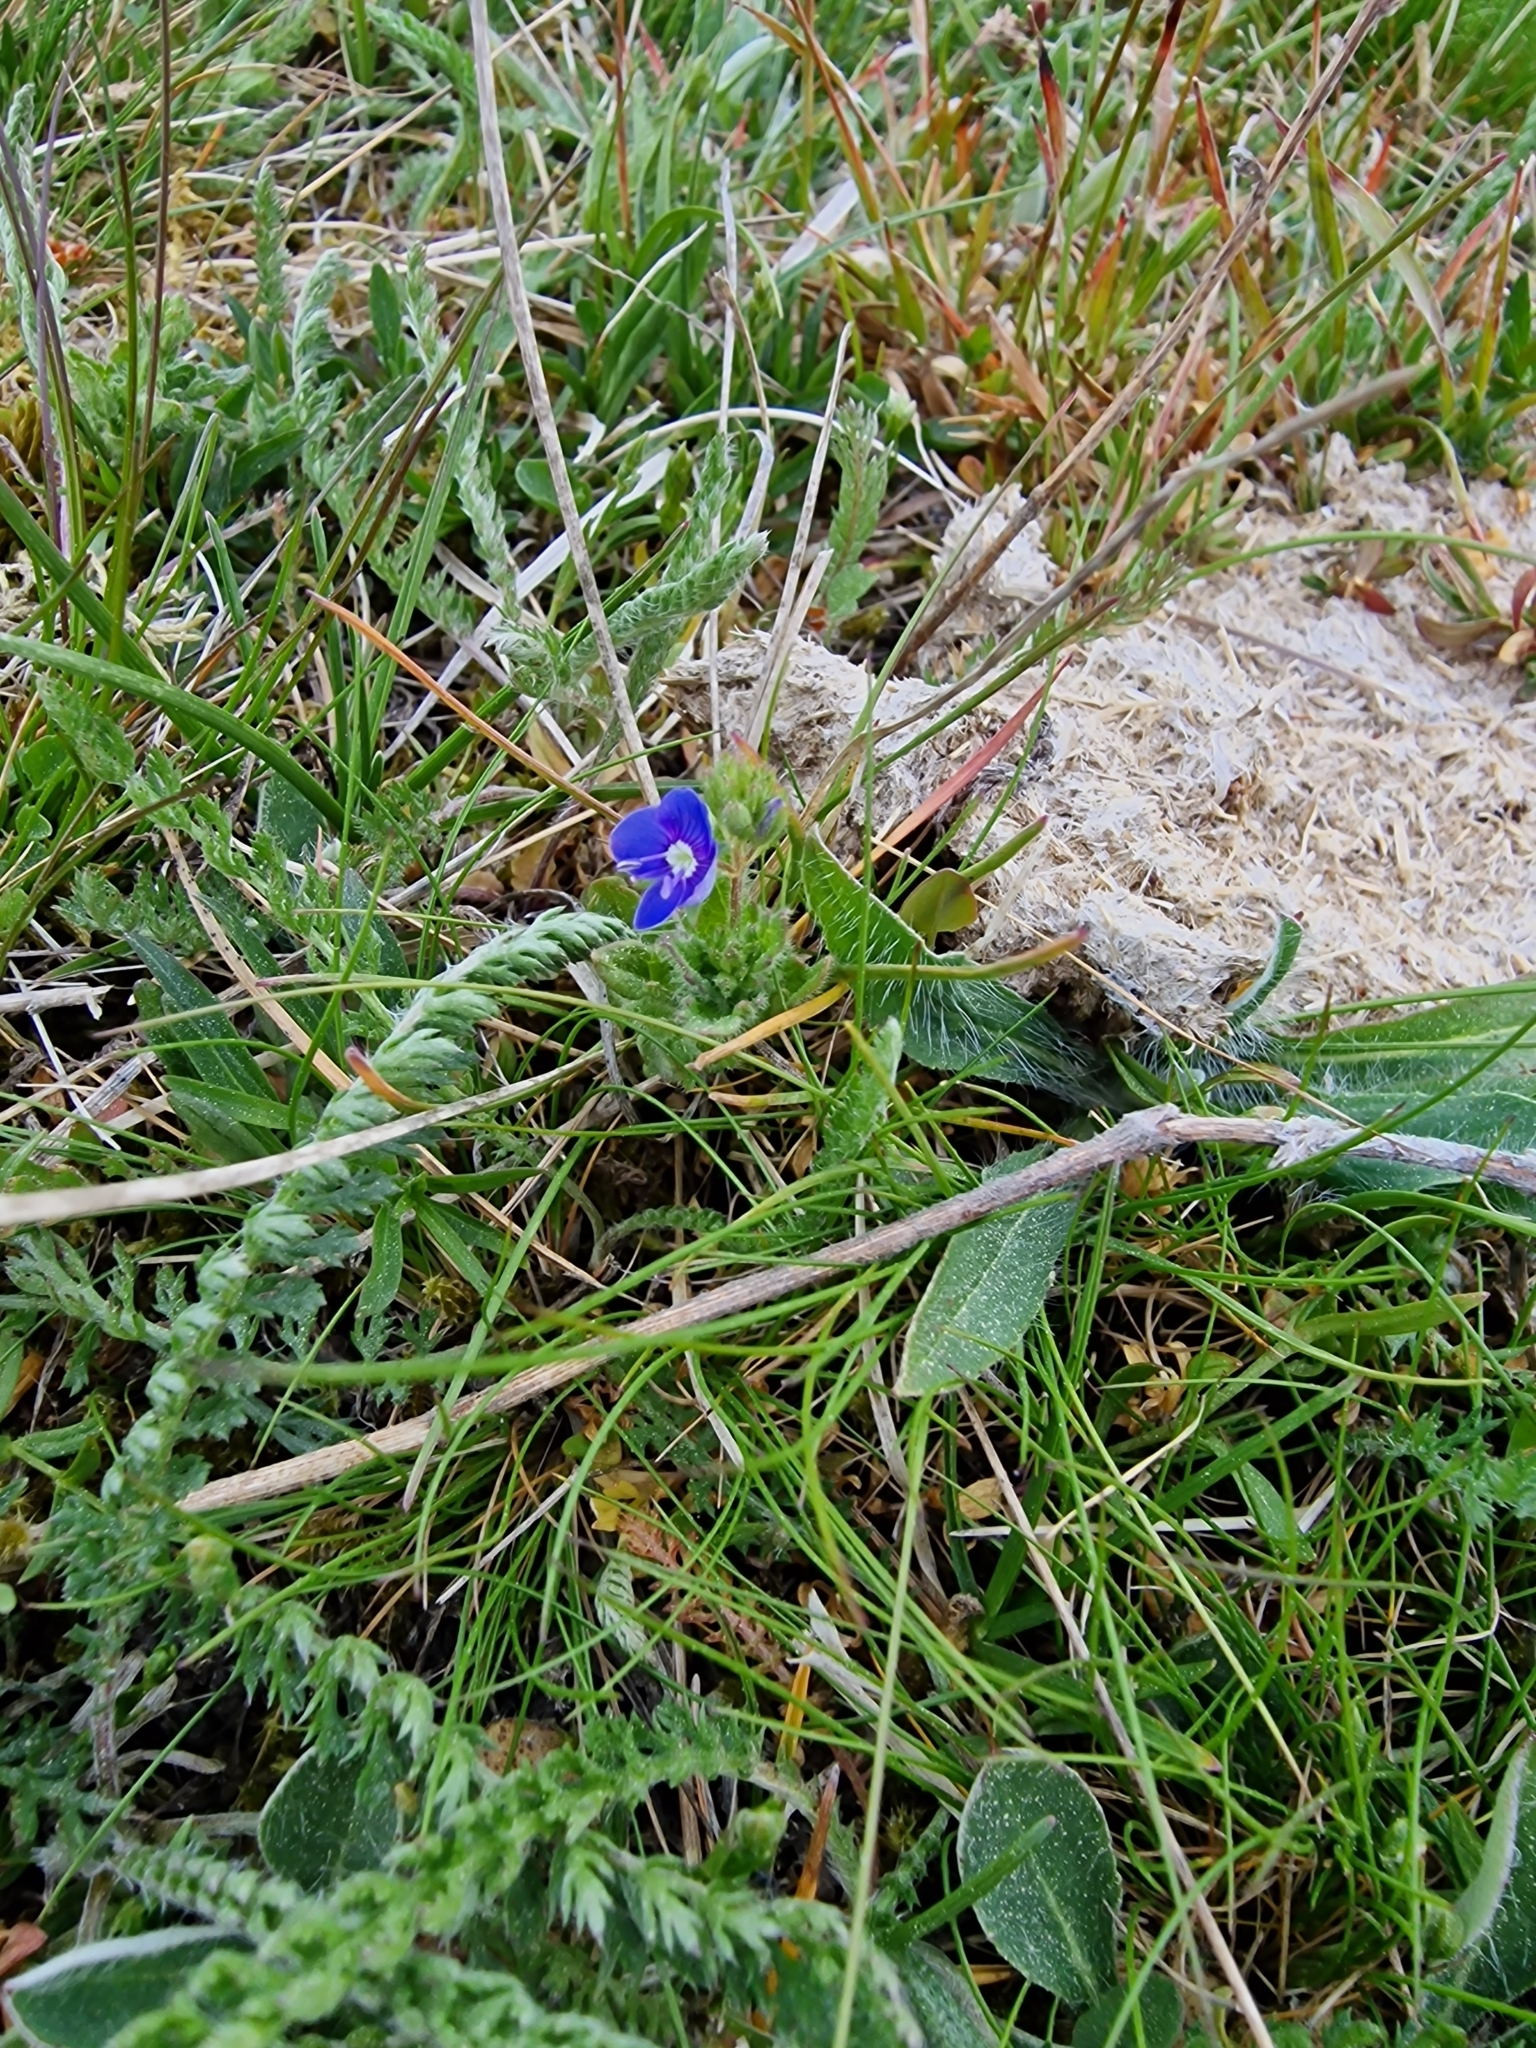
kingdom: Plantae
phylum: Tracheophyta
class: Magnoliopsida
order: Lamiales
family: Plantaginaceae
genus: Veronica
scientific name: Veronica chamaedrys
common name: Germander speedwell
